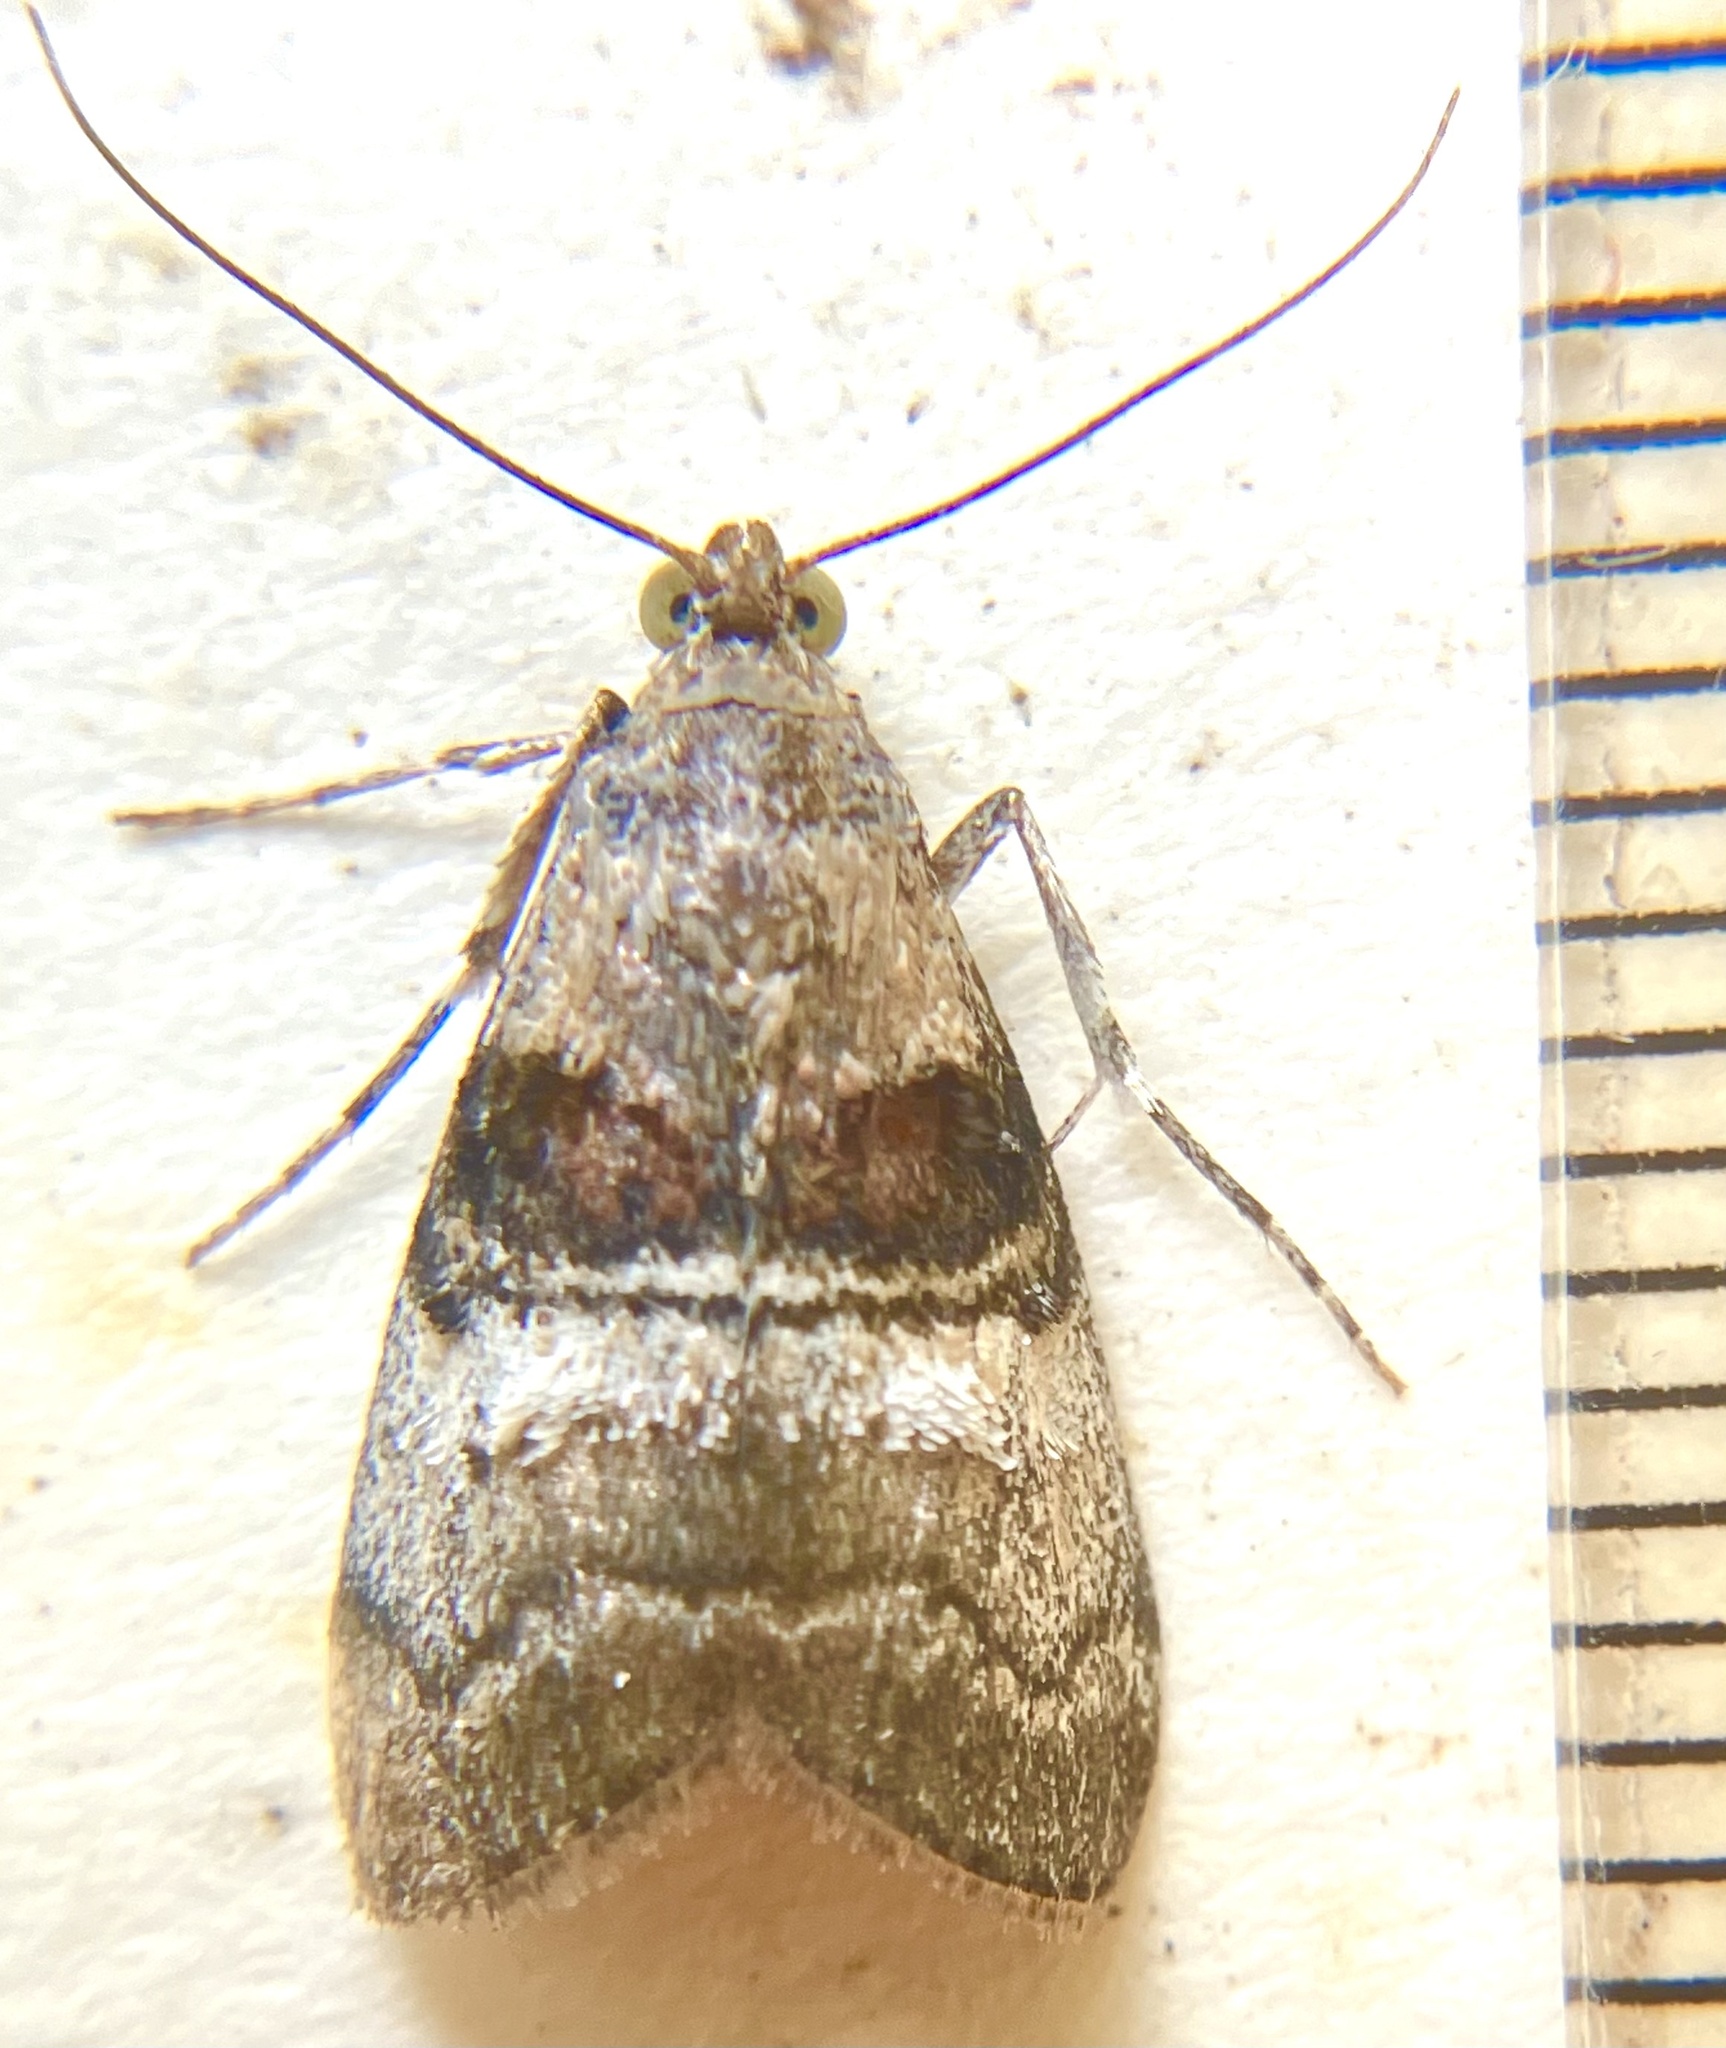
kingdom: Animalia
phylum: Arthropoda
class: Insecta
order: Lepidoptera
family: Pyralidae
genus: Pococera
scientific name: Pococera asperatella
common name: Maple webworm moth
